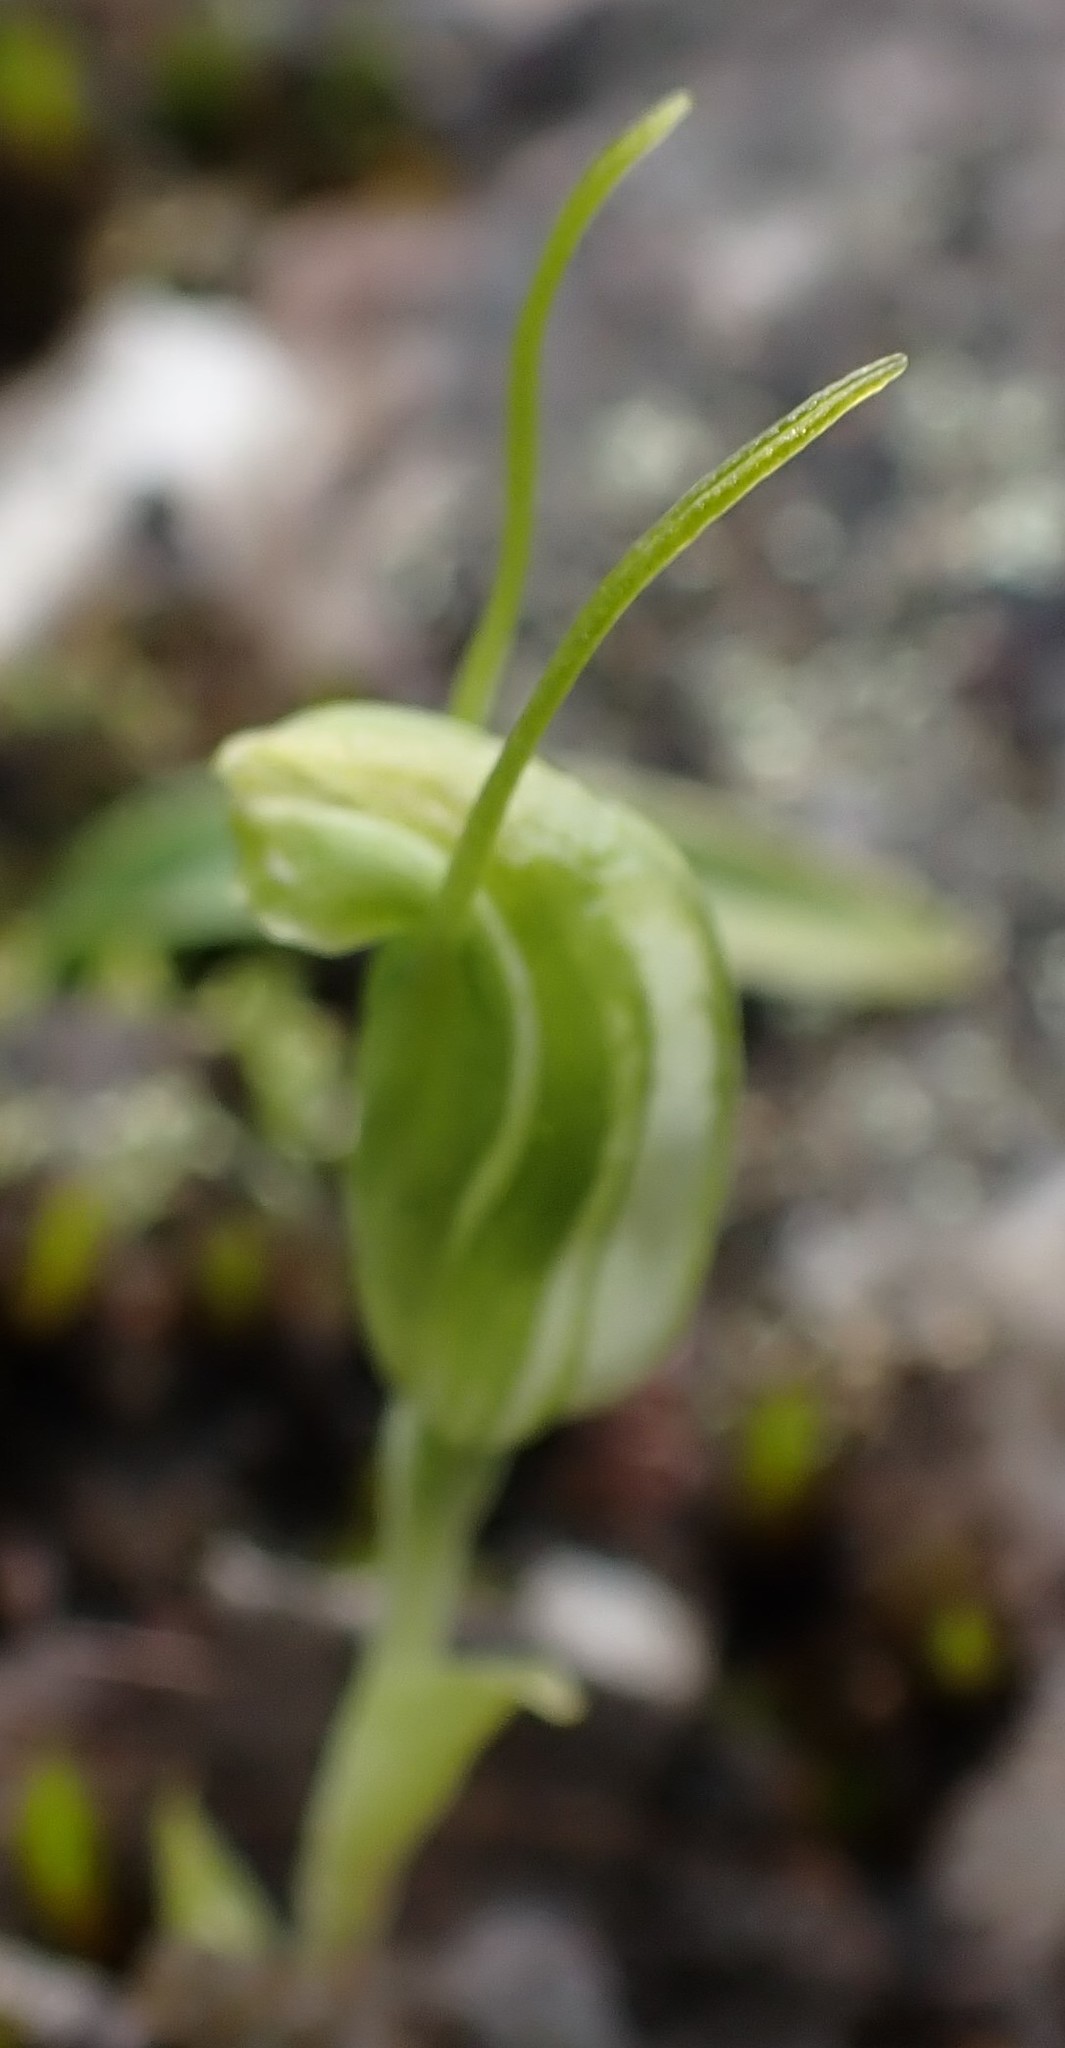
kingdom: Plantae
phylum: Tracheophyta
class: Liliopsida
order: Asparagales
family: Orchidaceae
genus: Pterostylis
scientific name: Pterostylis nana
